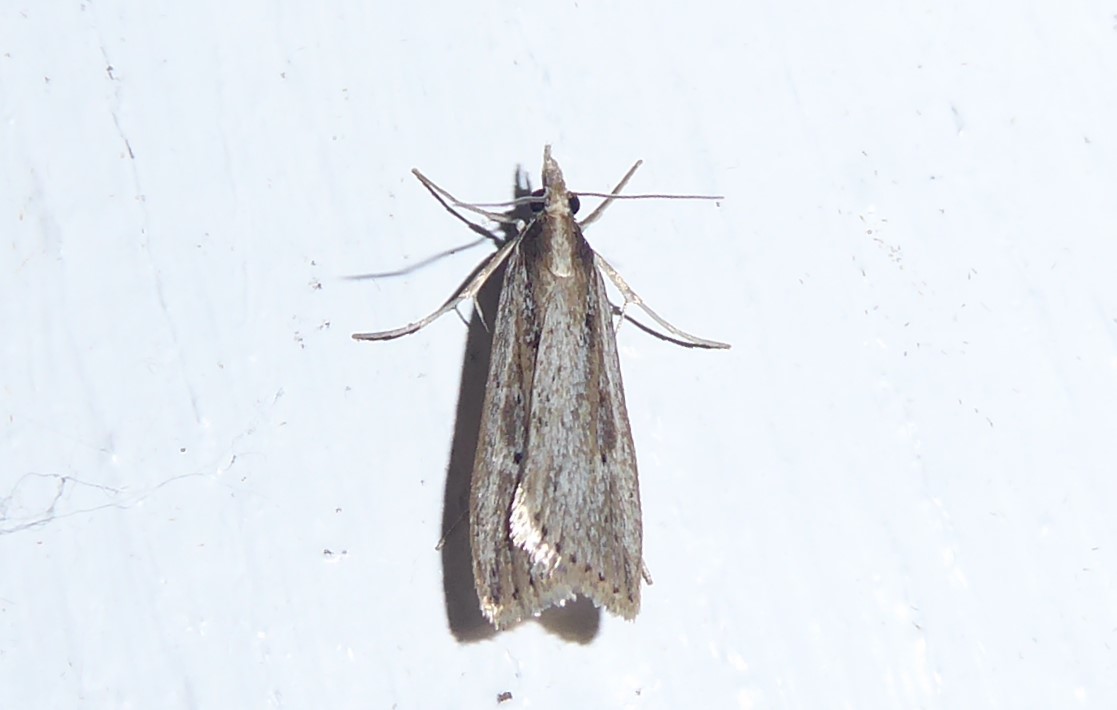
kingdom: Animalia
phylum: Arthropoda
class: Insecta
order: Lepidoptera
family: Crambidae
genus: Eudonia
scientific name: Eudonia sabulosella
